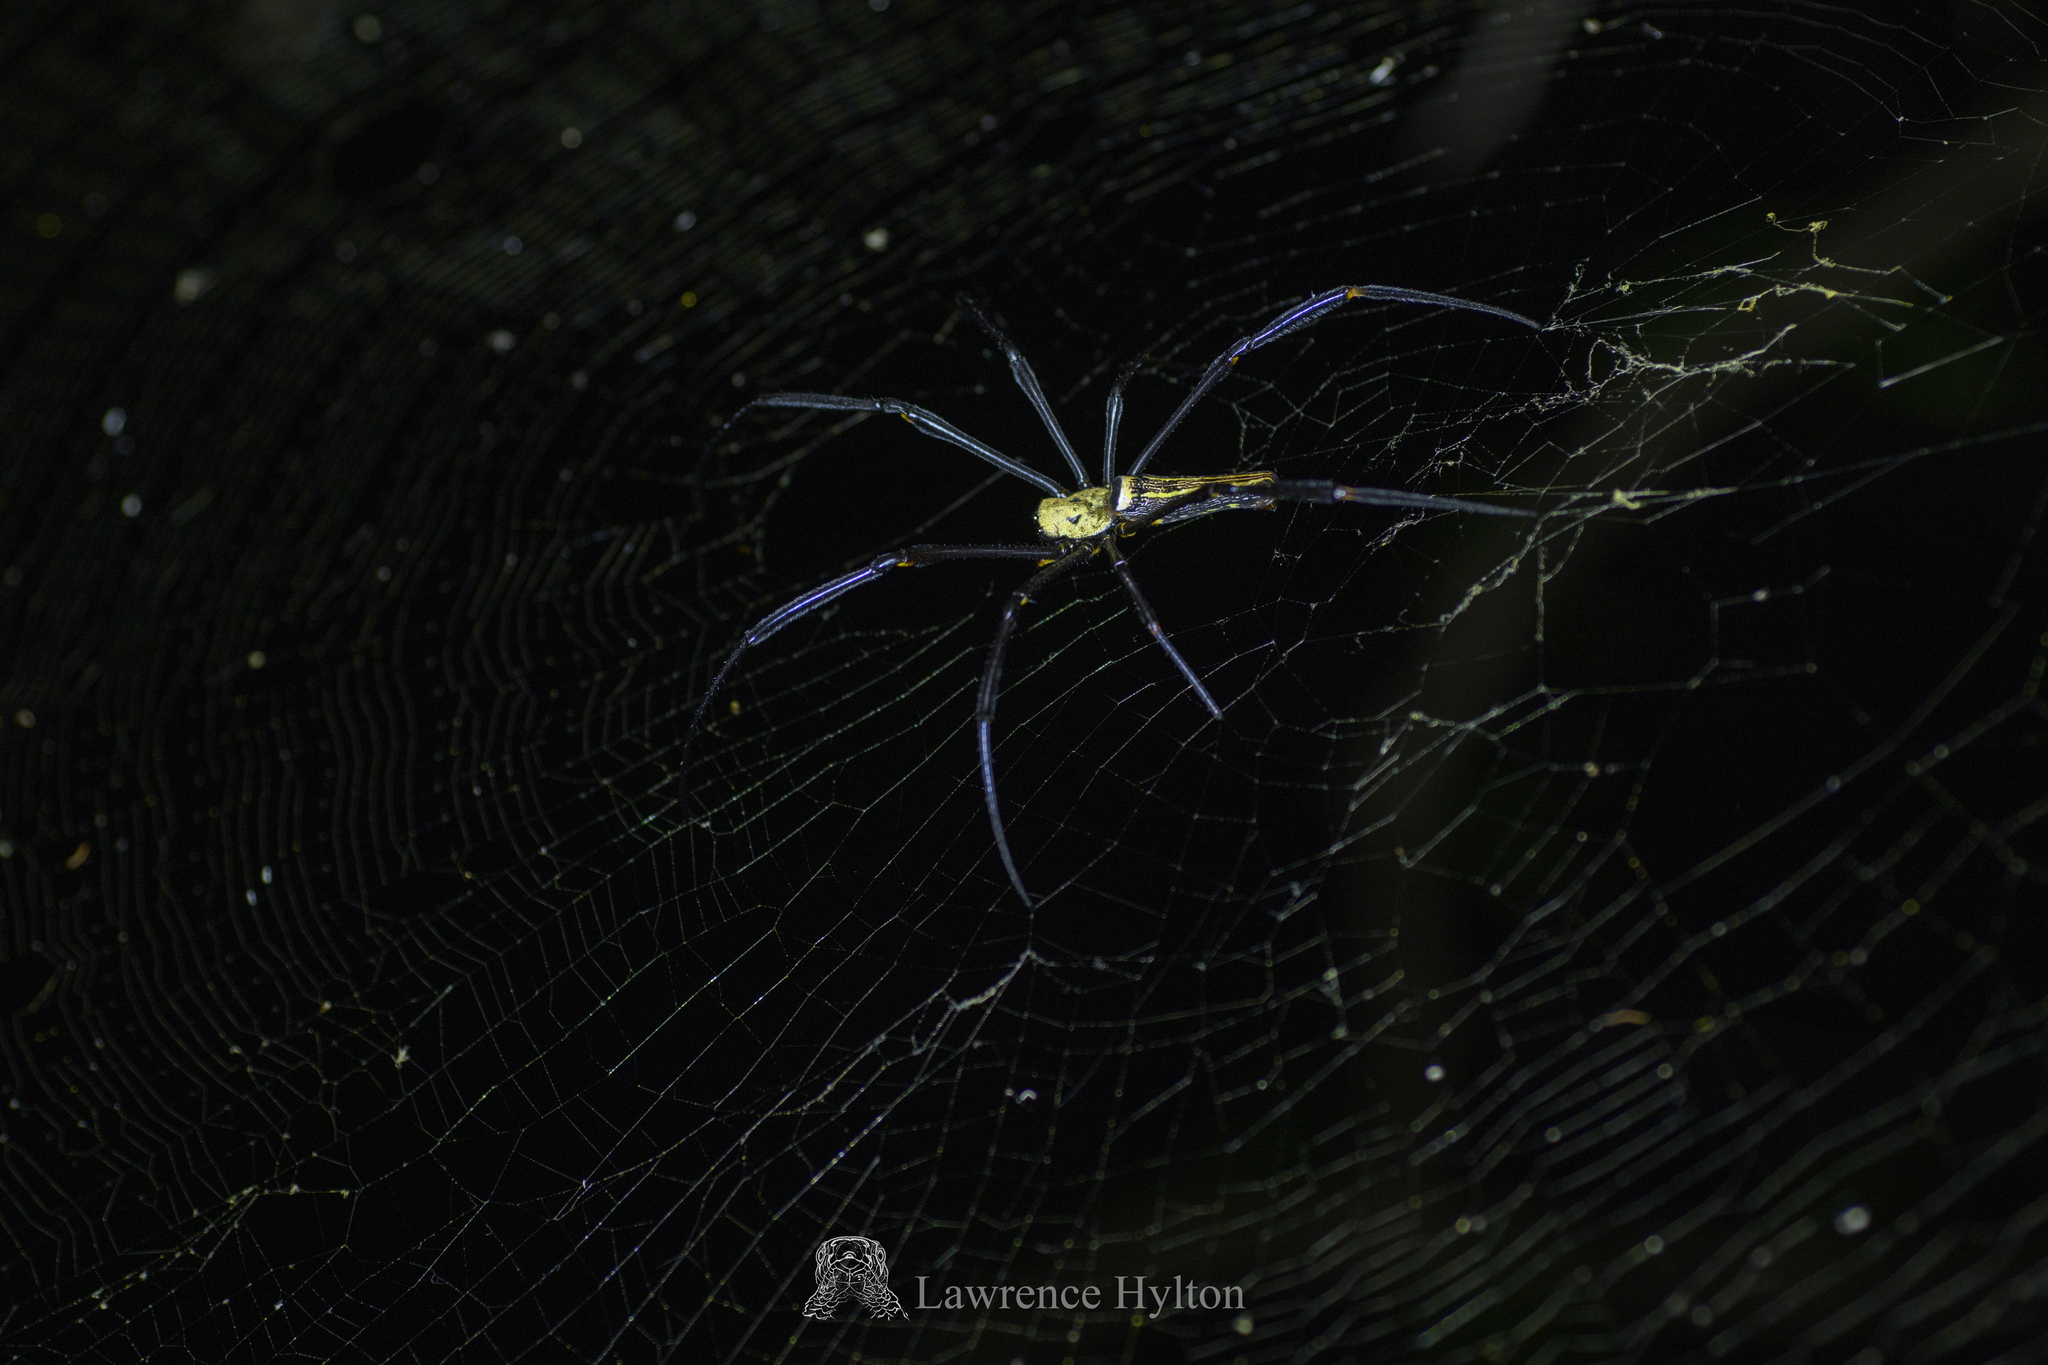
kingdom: Animalia
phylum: Arthropoda
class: Arachnida
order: Araneae
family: Araneidae
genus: Nephila
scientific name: Nephila pilipes
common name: Giant golden orb weaver
